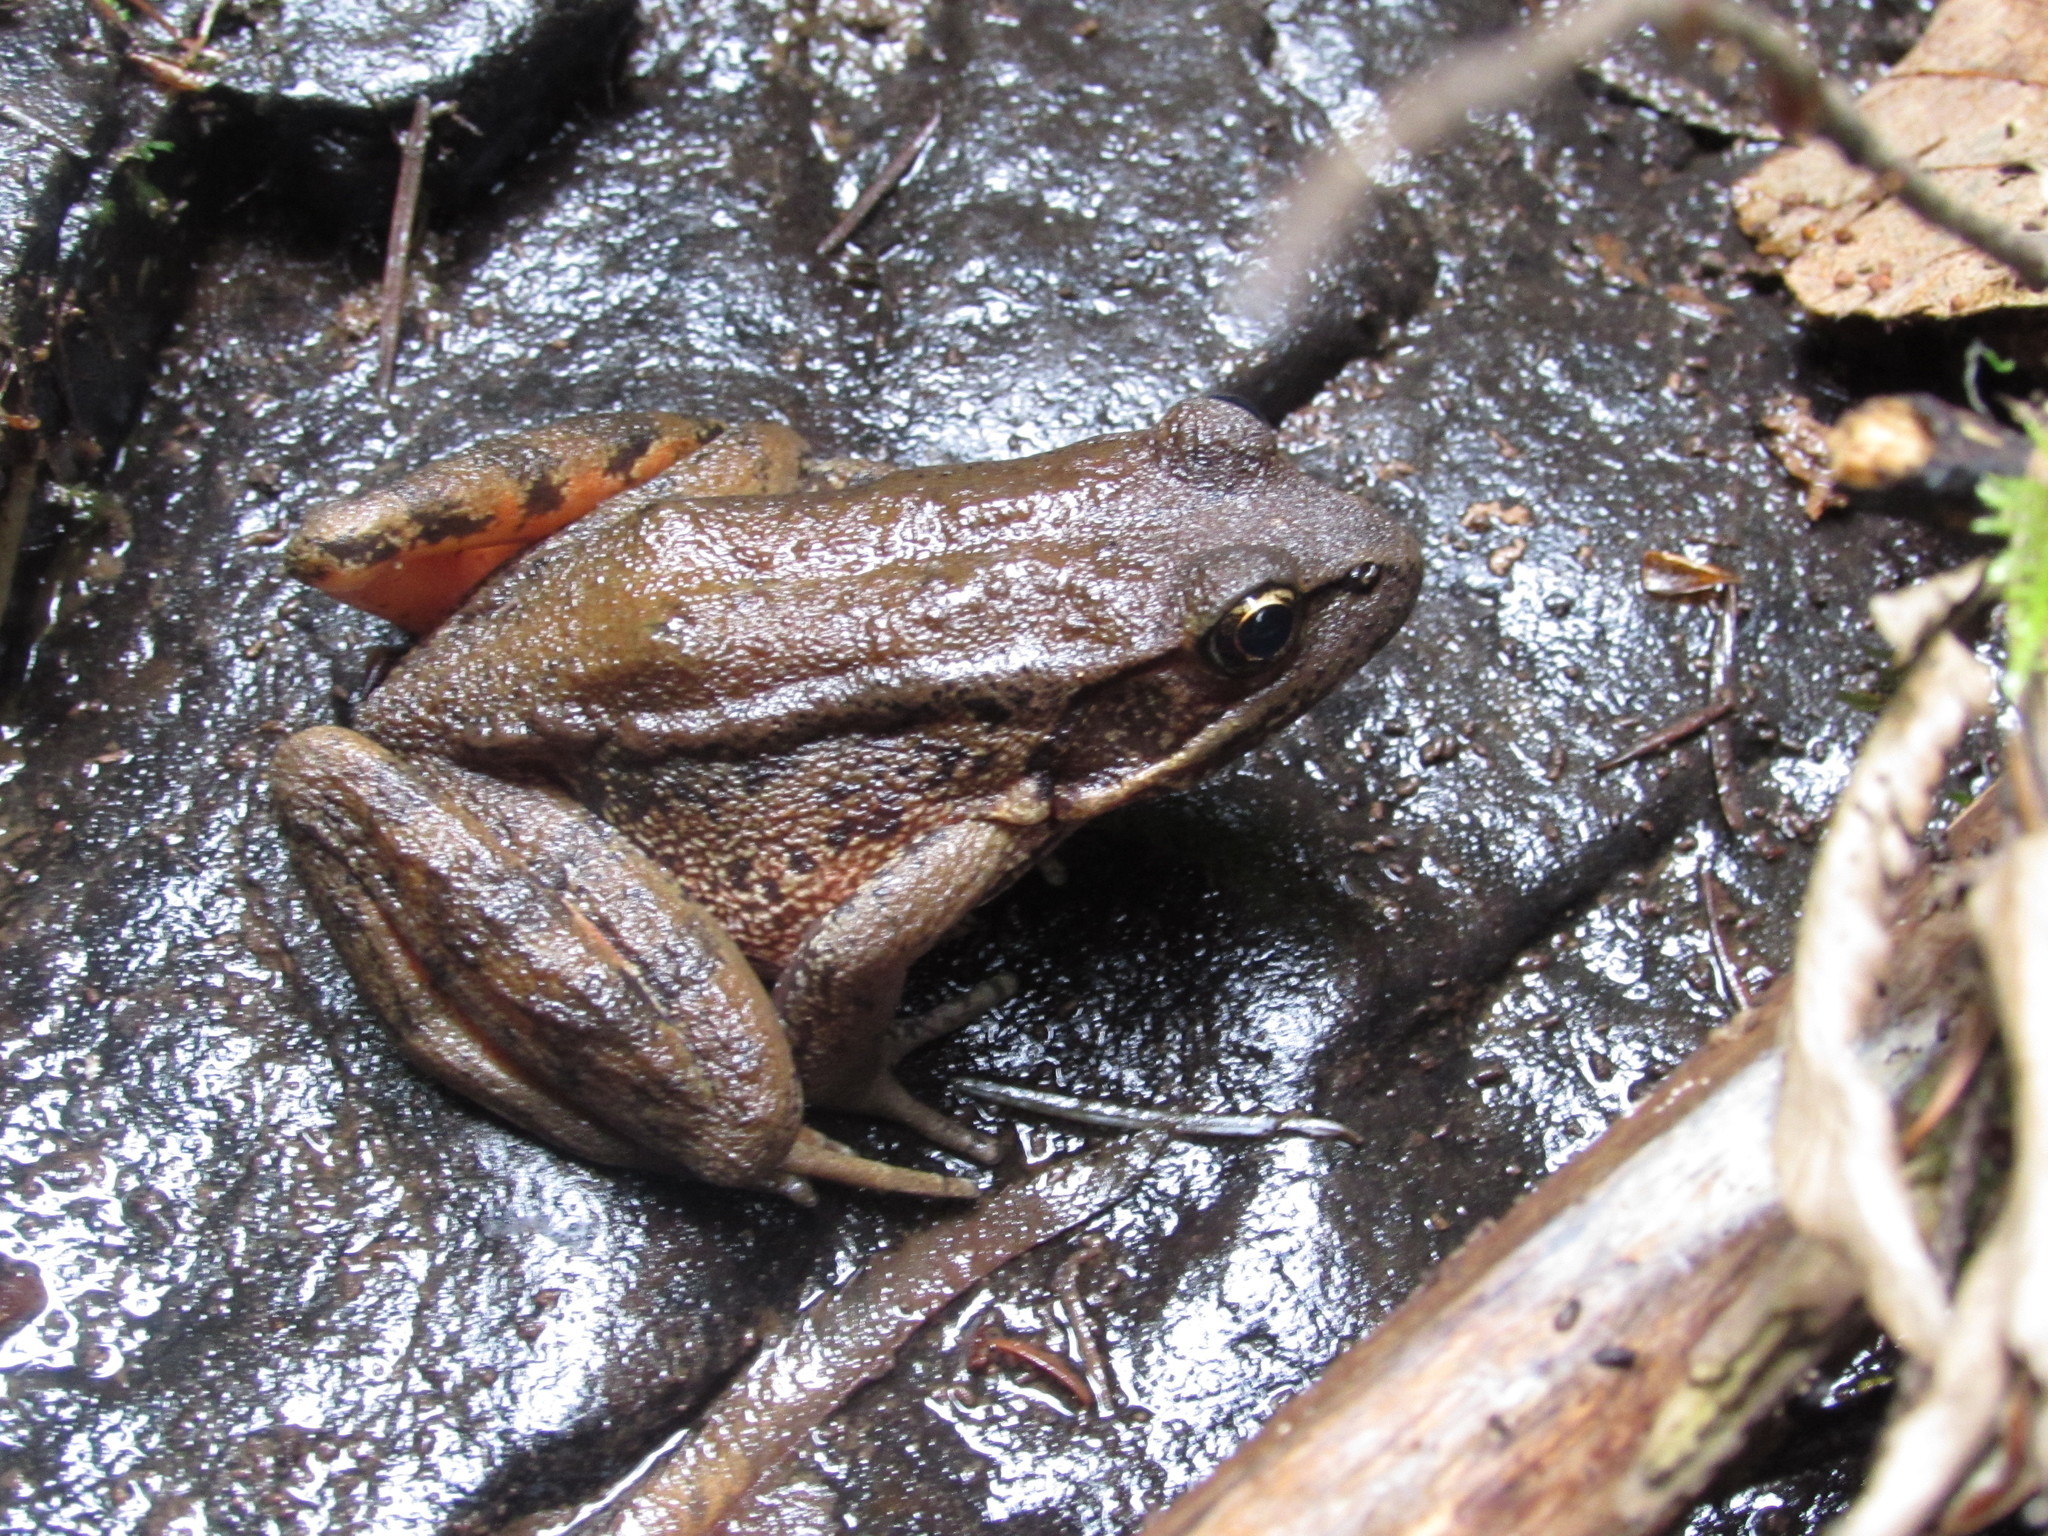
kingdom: Animalia
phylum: Chordata
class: Amphibia
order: Anura
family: Ranidae
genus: Rana
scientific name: Rana aurora
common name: Red-legged frog
